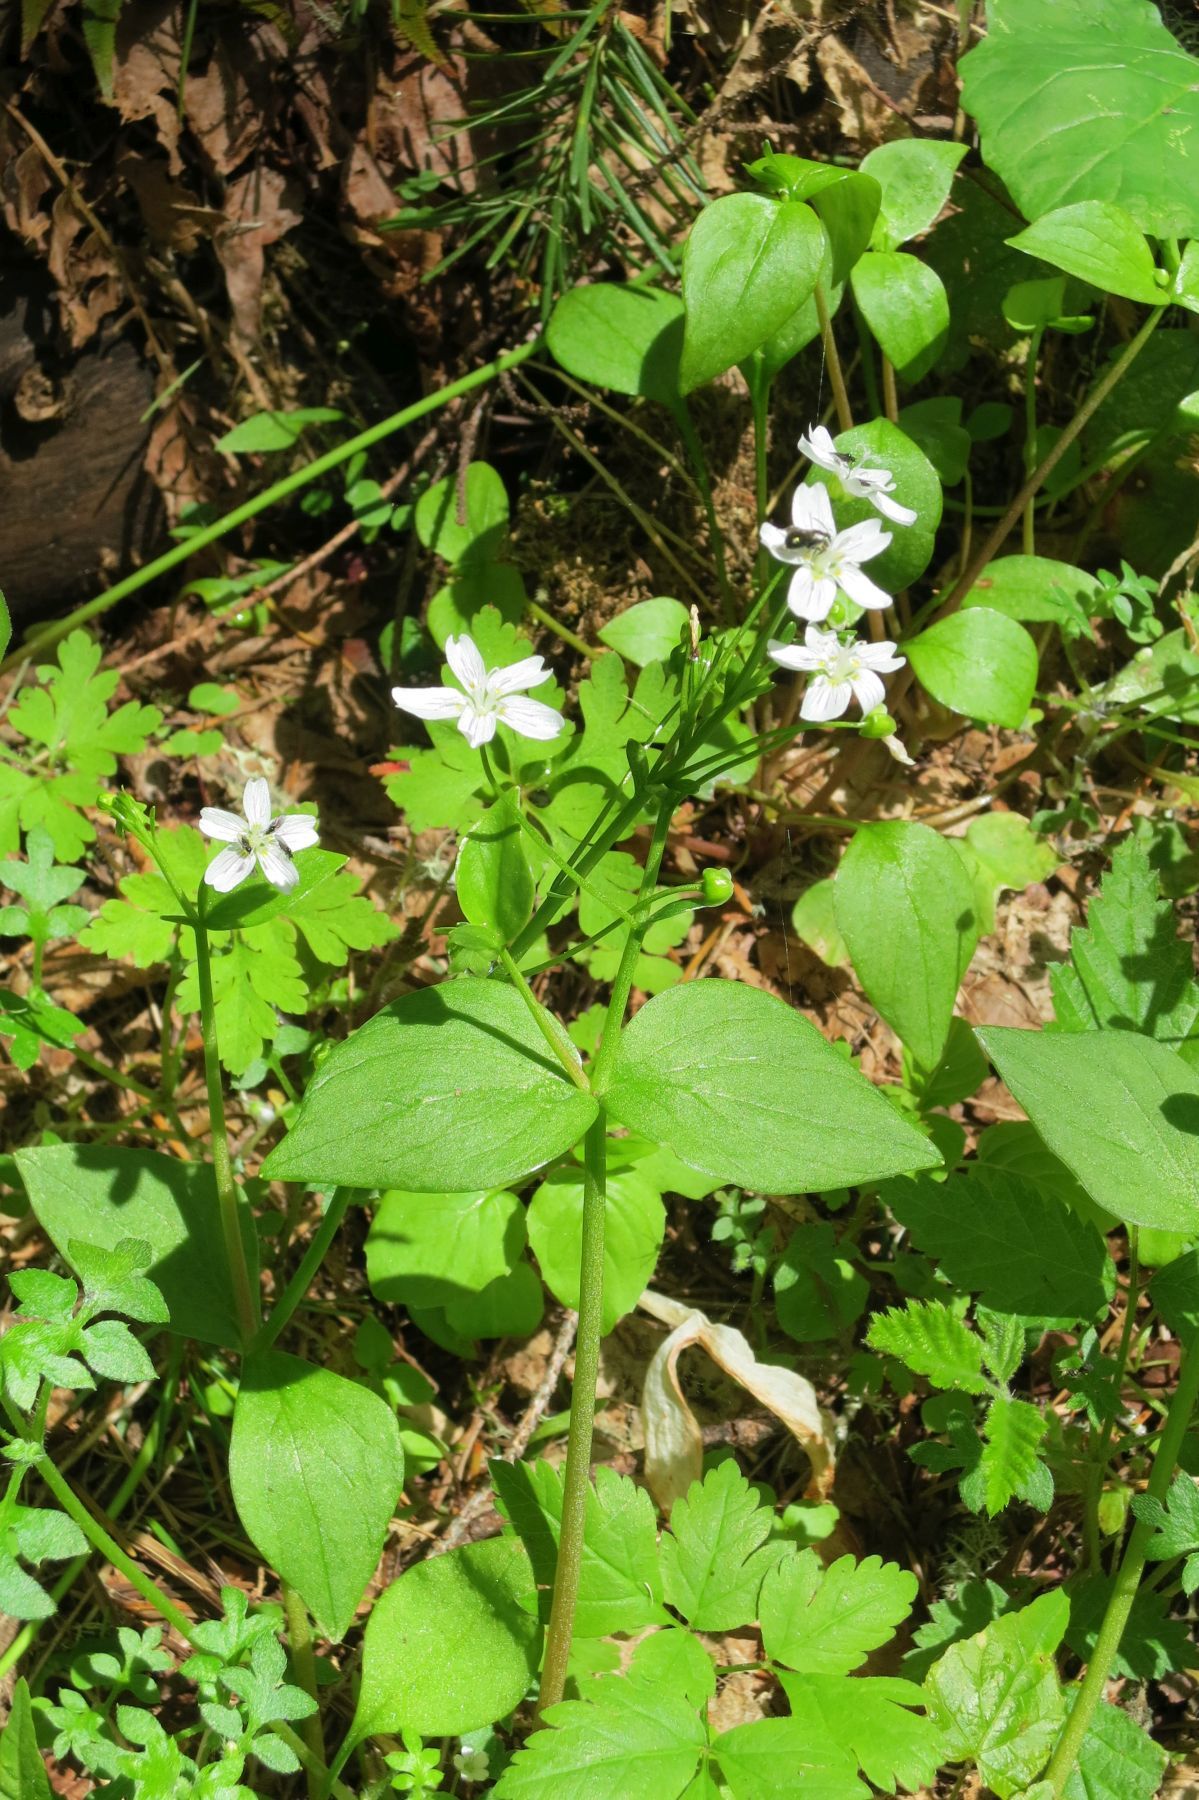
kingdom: Plantae
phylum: Tracheophyta
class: Magnoliopsida
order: Caryophyllales
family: Montiaceae
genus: Claytonia
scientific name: Claytonia sibirica
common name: Pink purslane
